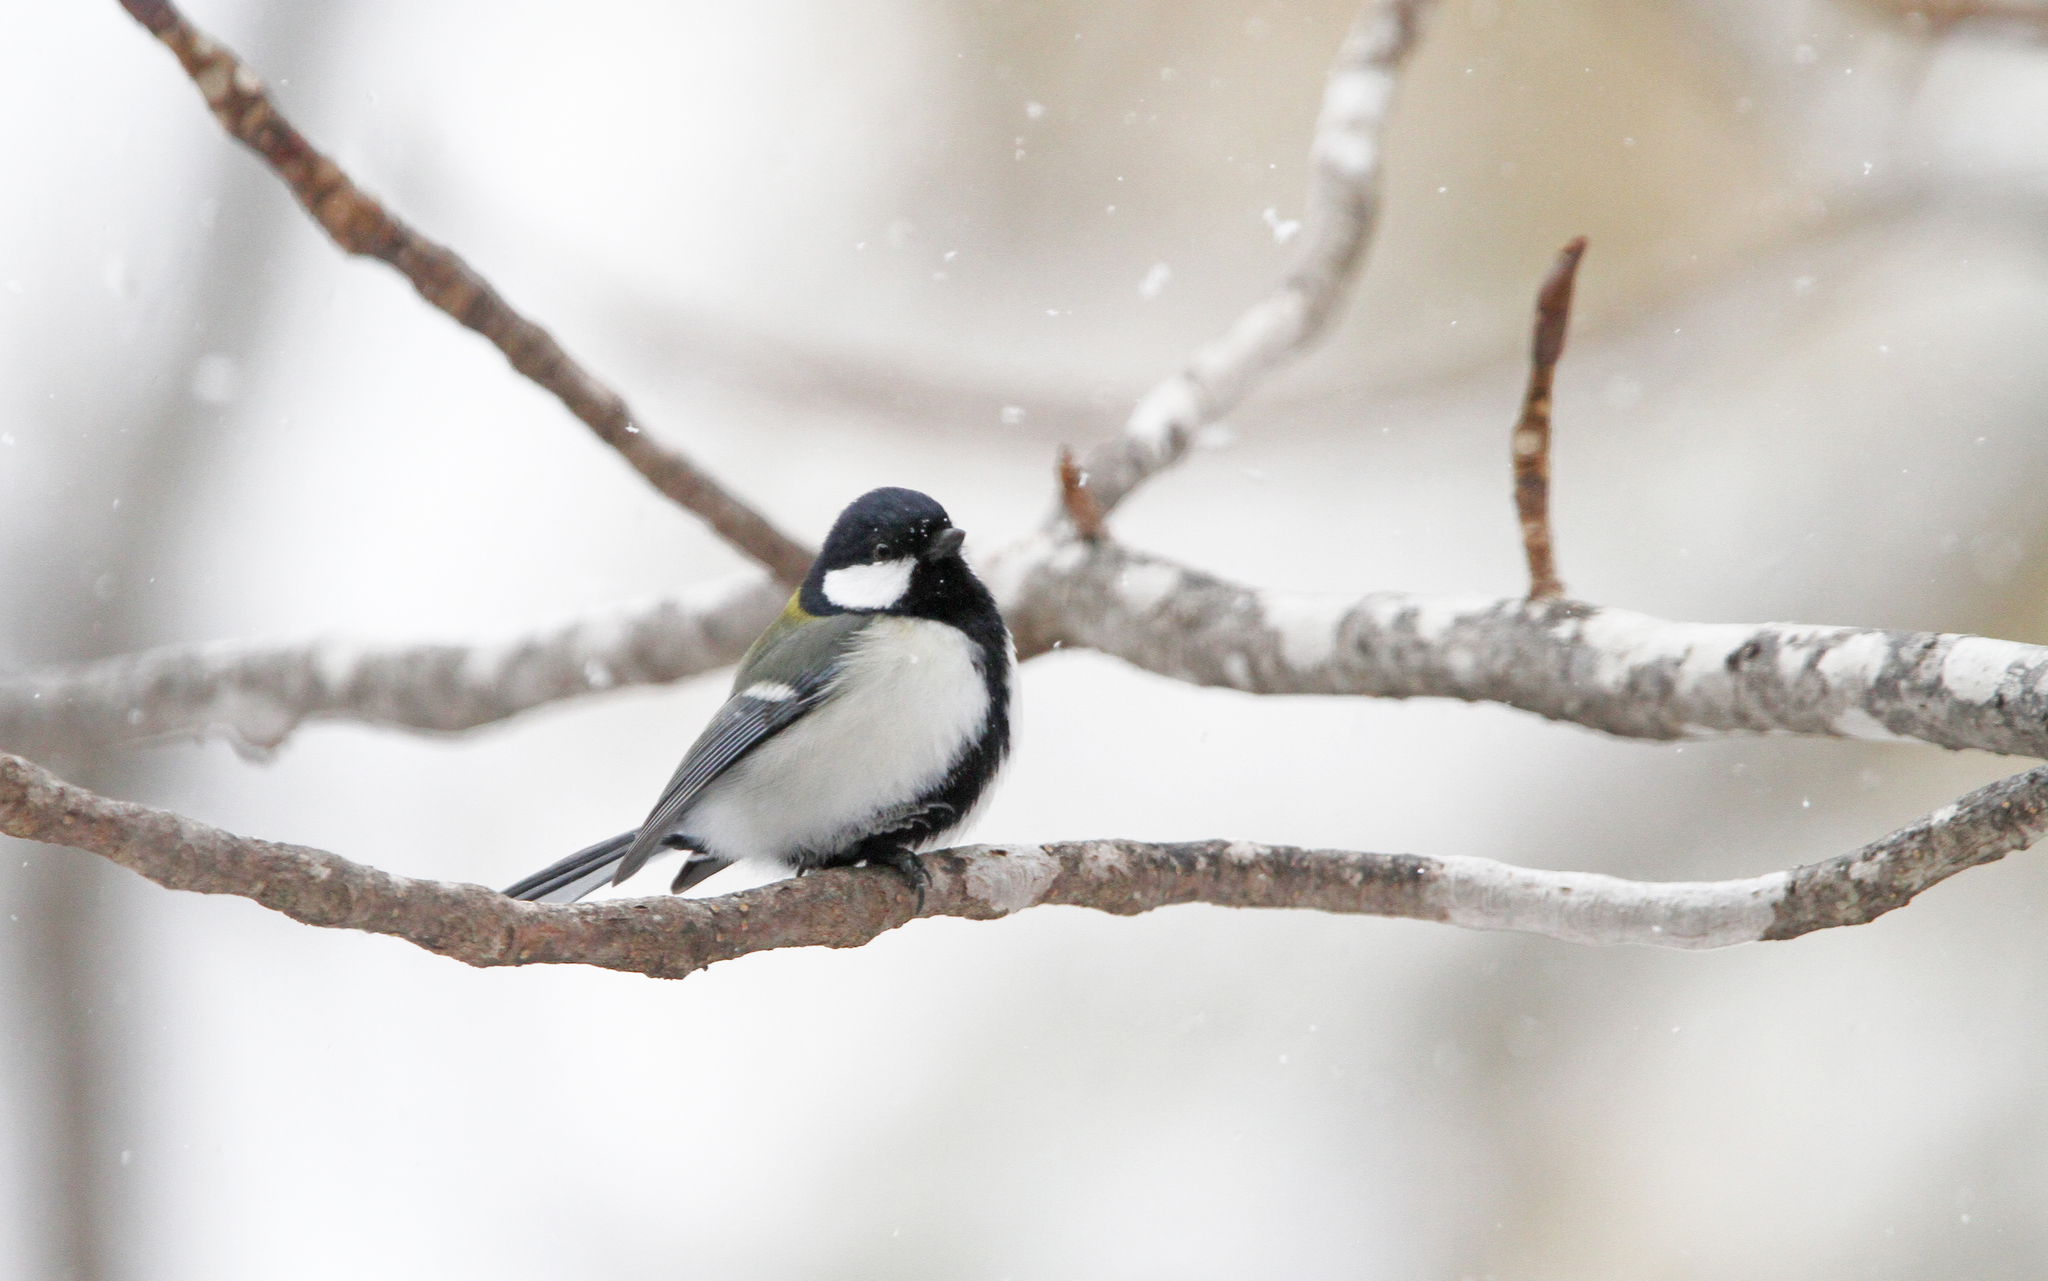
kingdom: Animalia
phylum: Chordata
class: Aves
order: Passeriformes
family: Paridae
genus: Parus
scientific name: Parus minor
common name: Japanese tit
